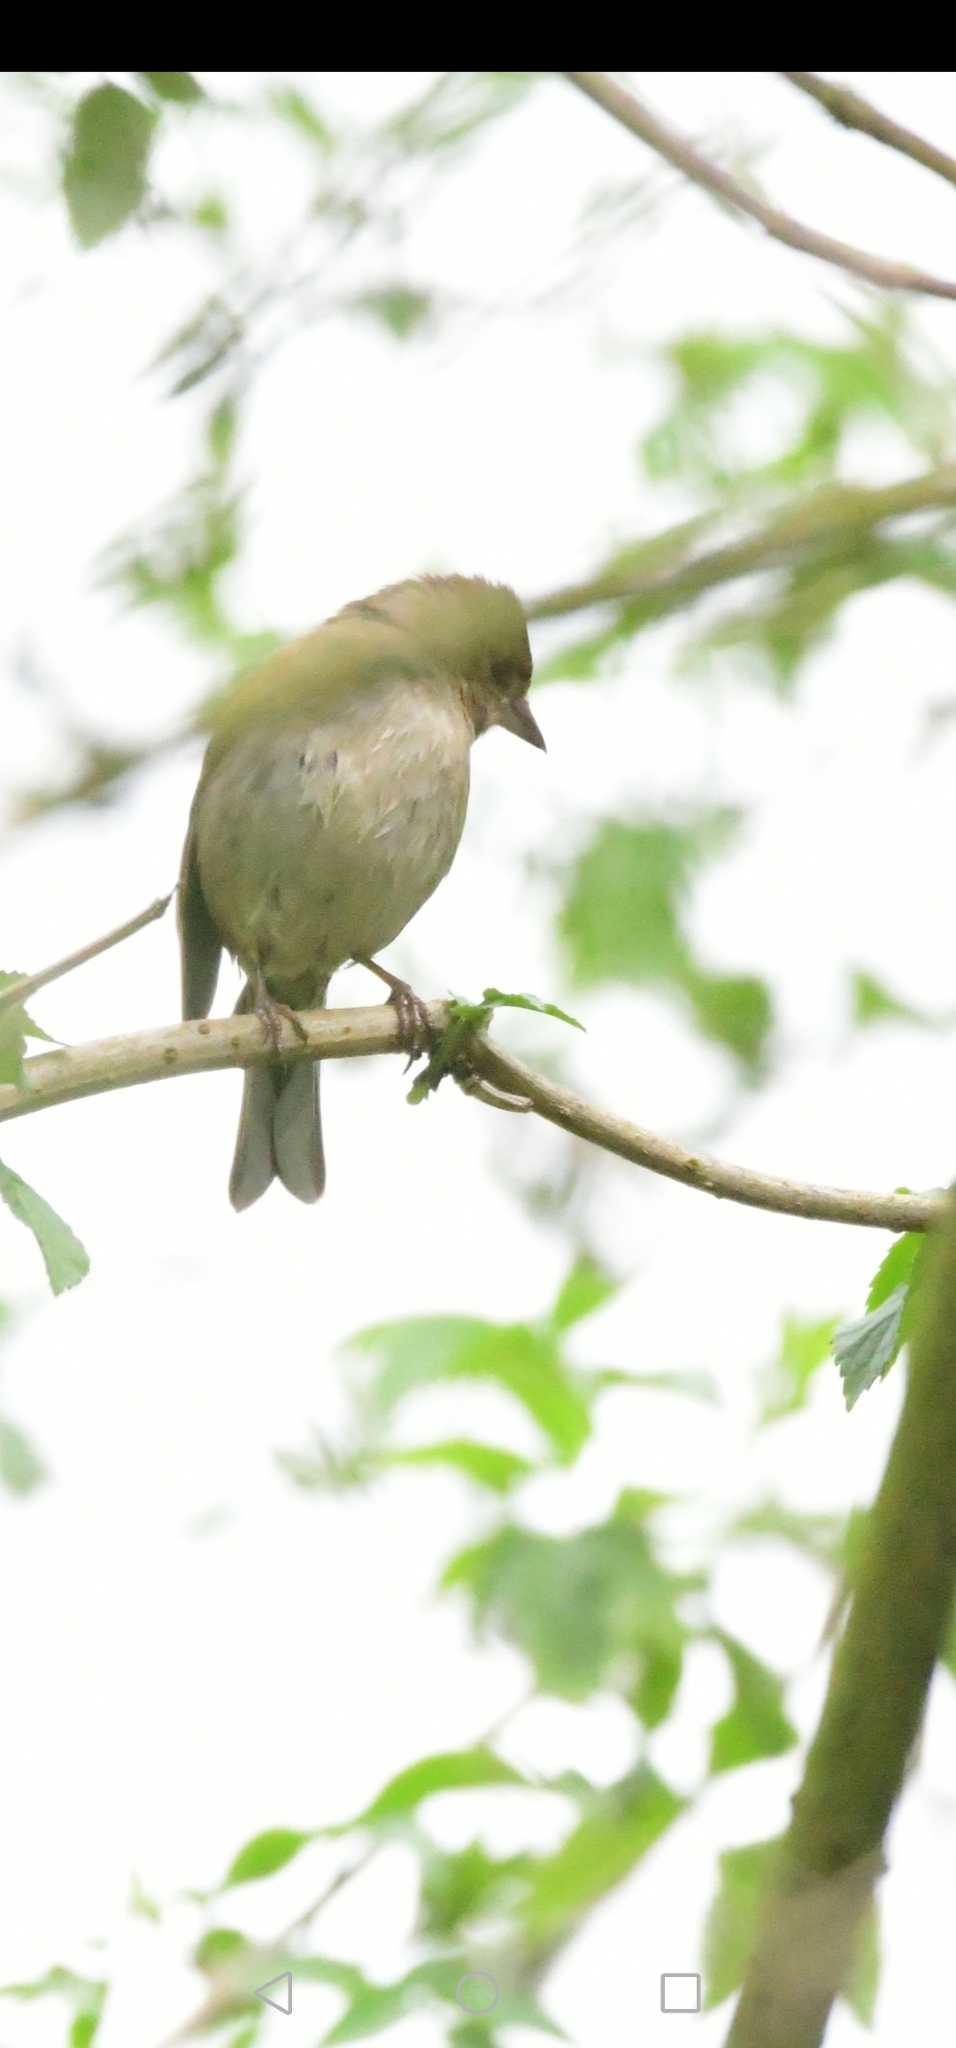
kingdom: Animalia
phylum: Chordata
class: Aves
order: Passeriformes
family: Fringillidae
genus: Fringilla
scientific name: Fringilla coelebs
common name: Common chaffinch
